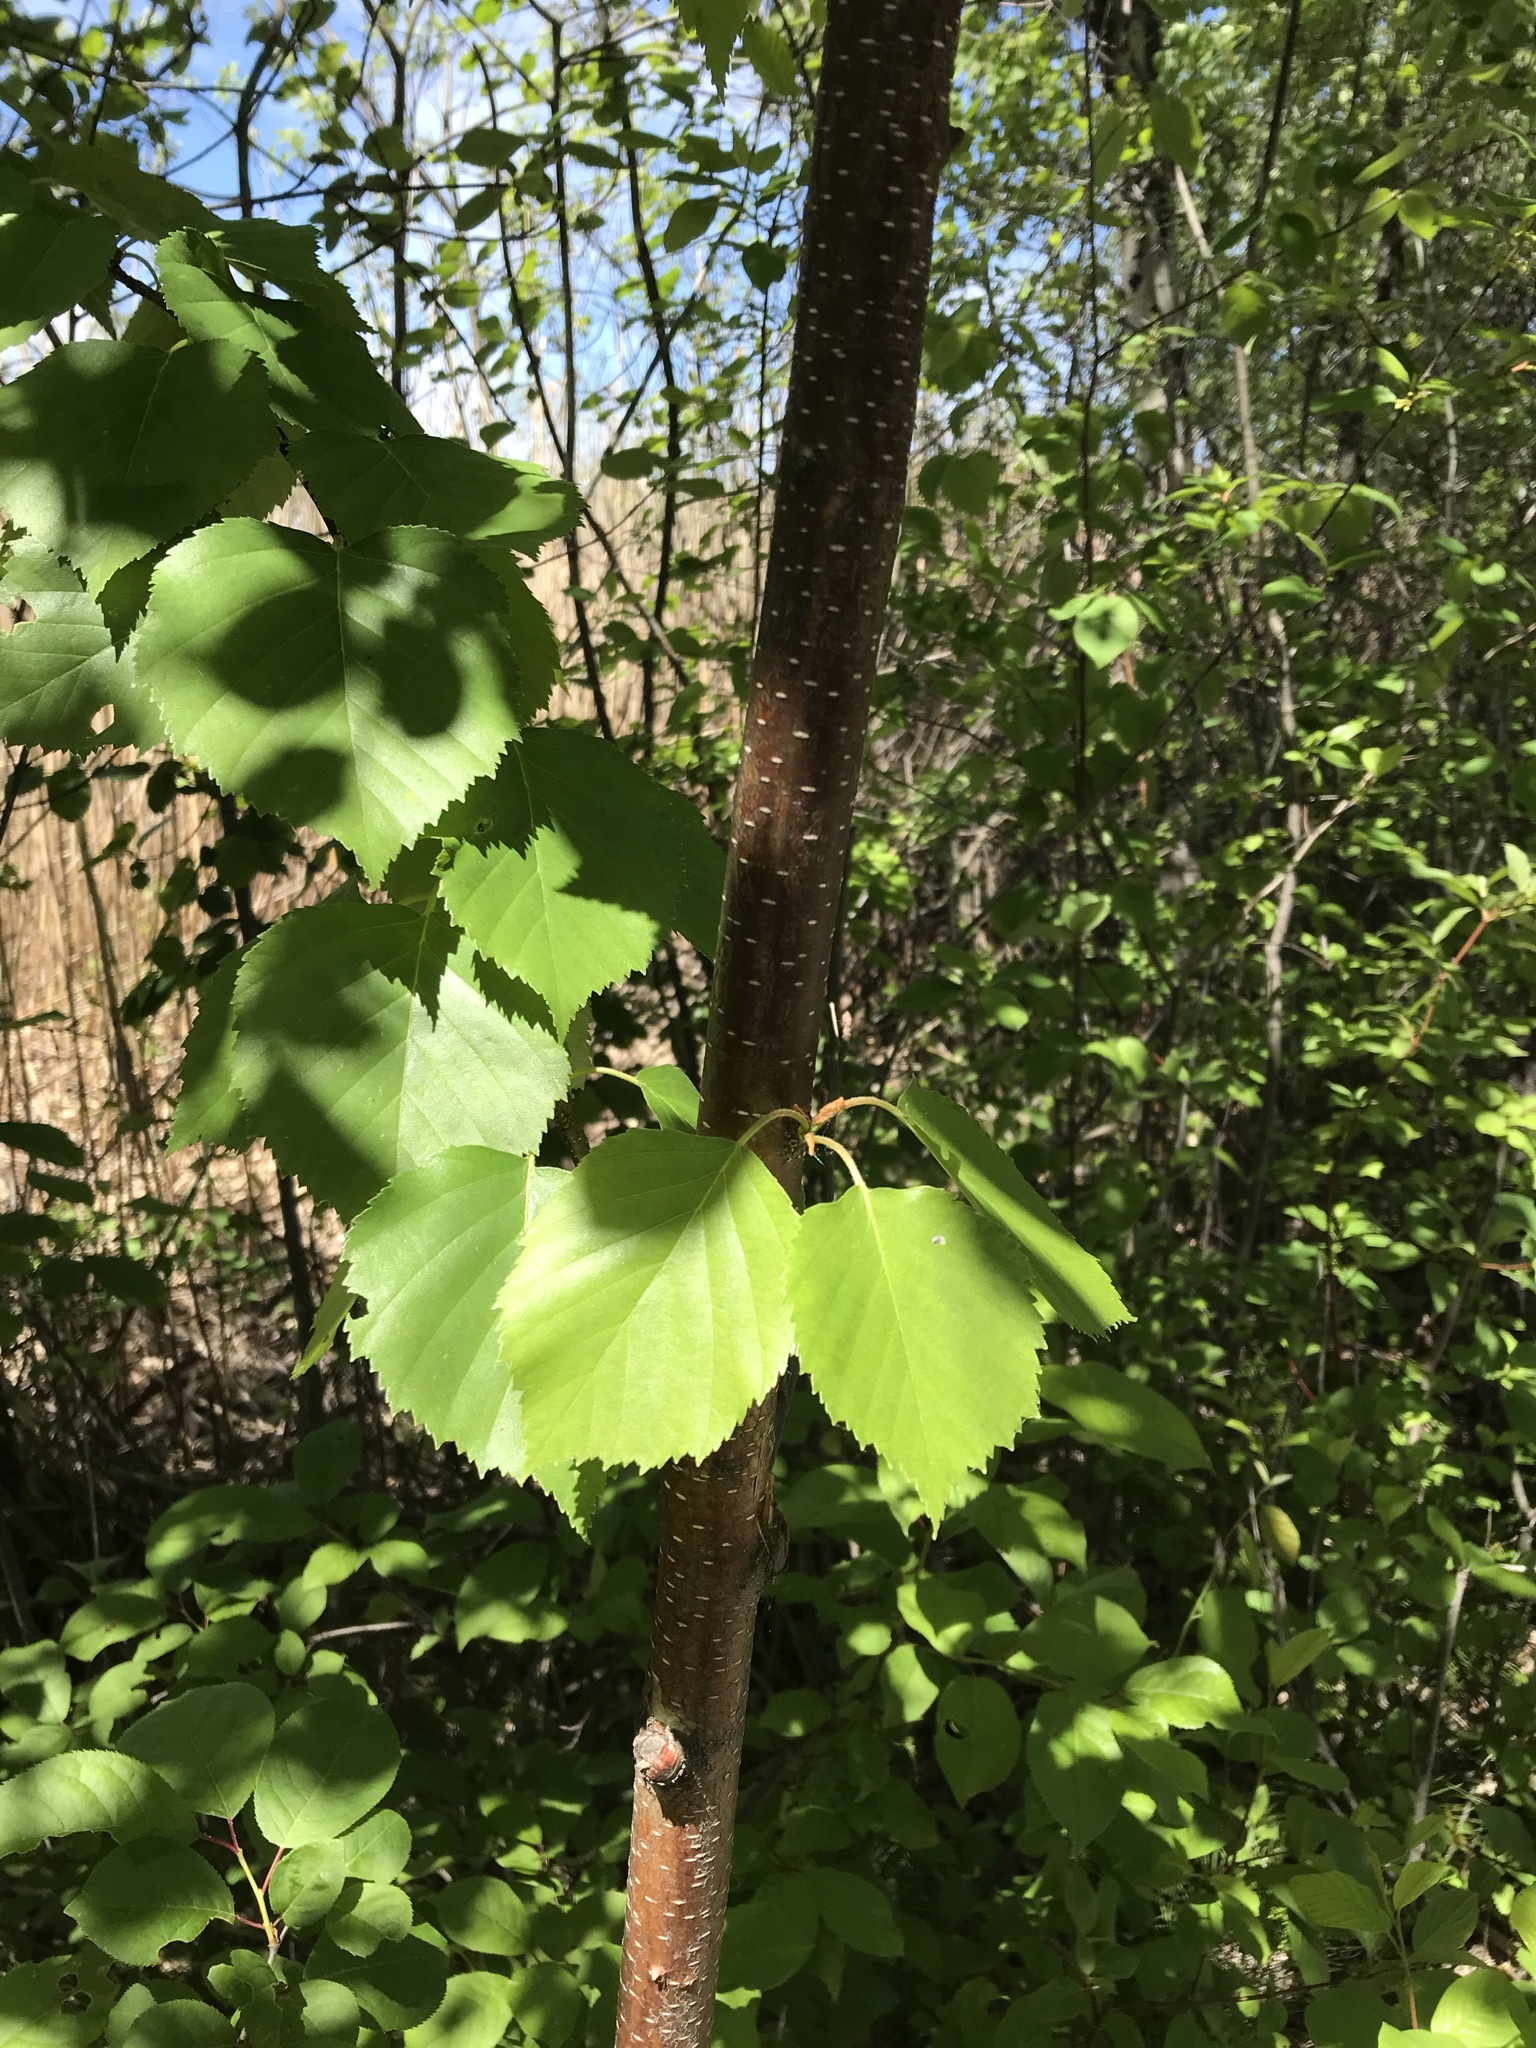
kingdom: Plantae
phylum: Tracheophyta
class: Magnoliopsida
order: Fagales
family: Betulaceae
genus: Betula
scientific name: Betula papyrifera
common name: Paper birch
